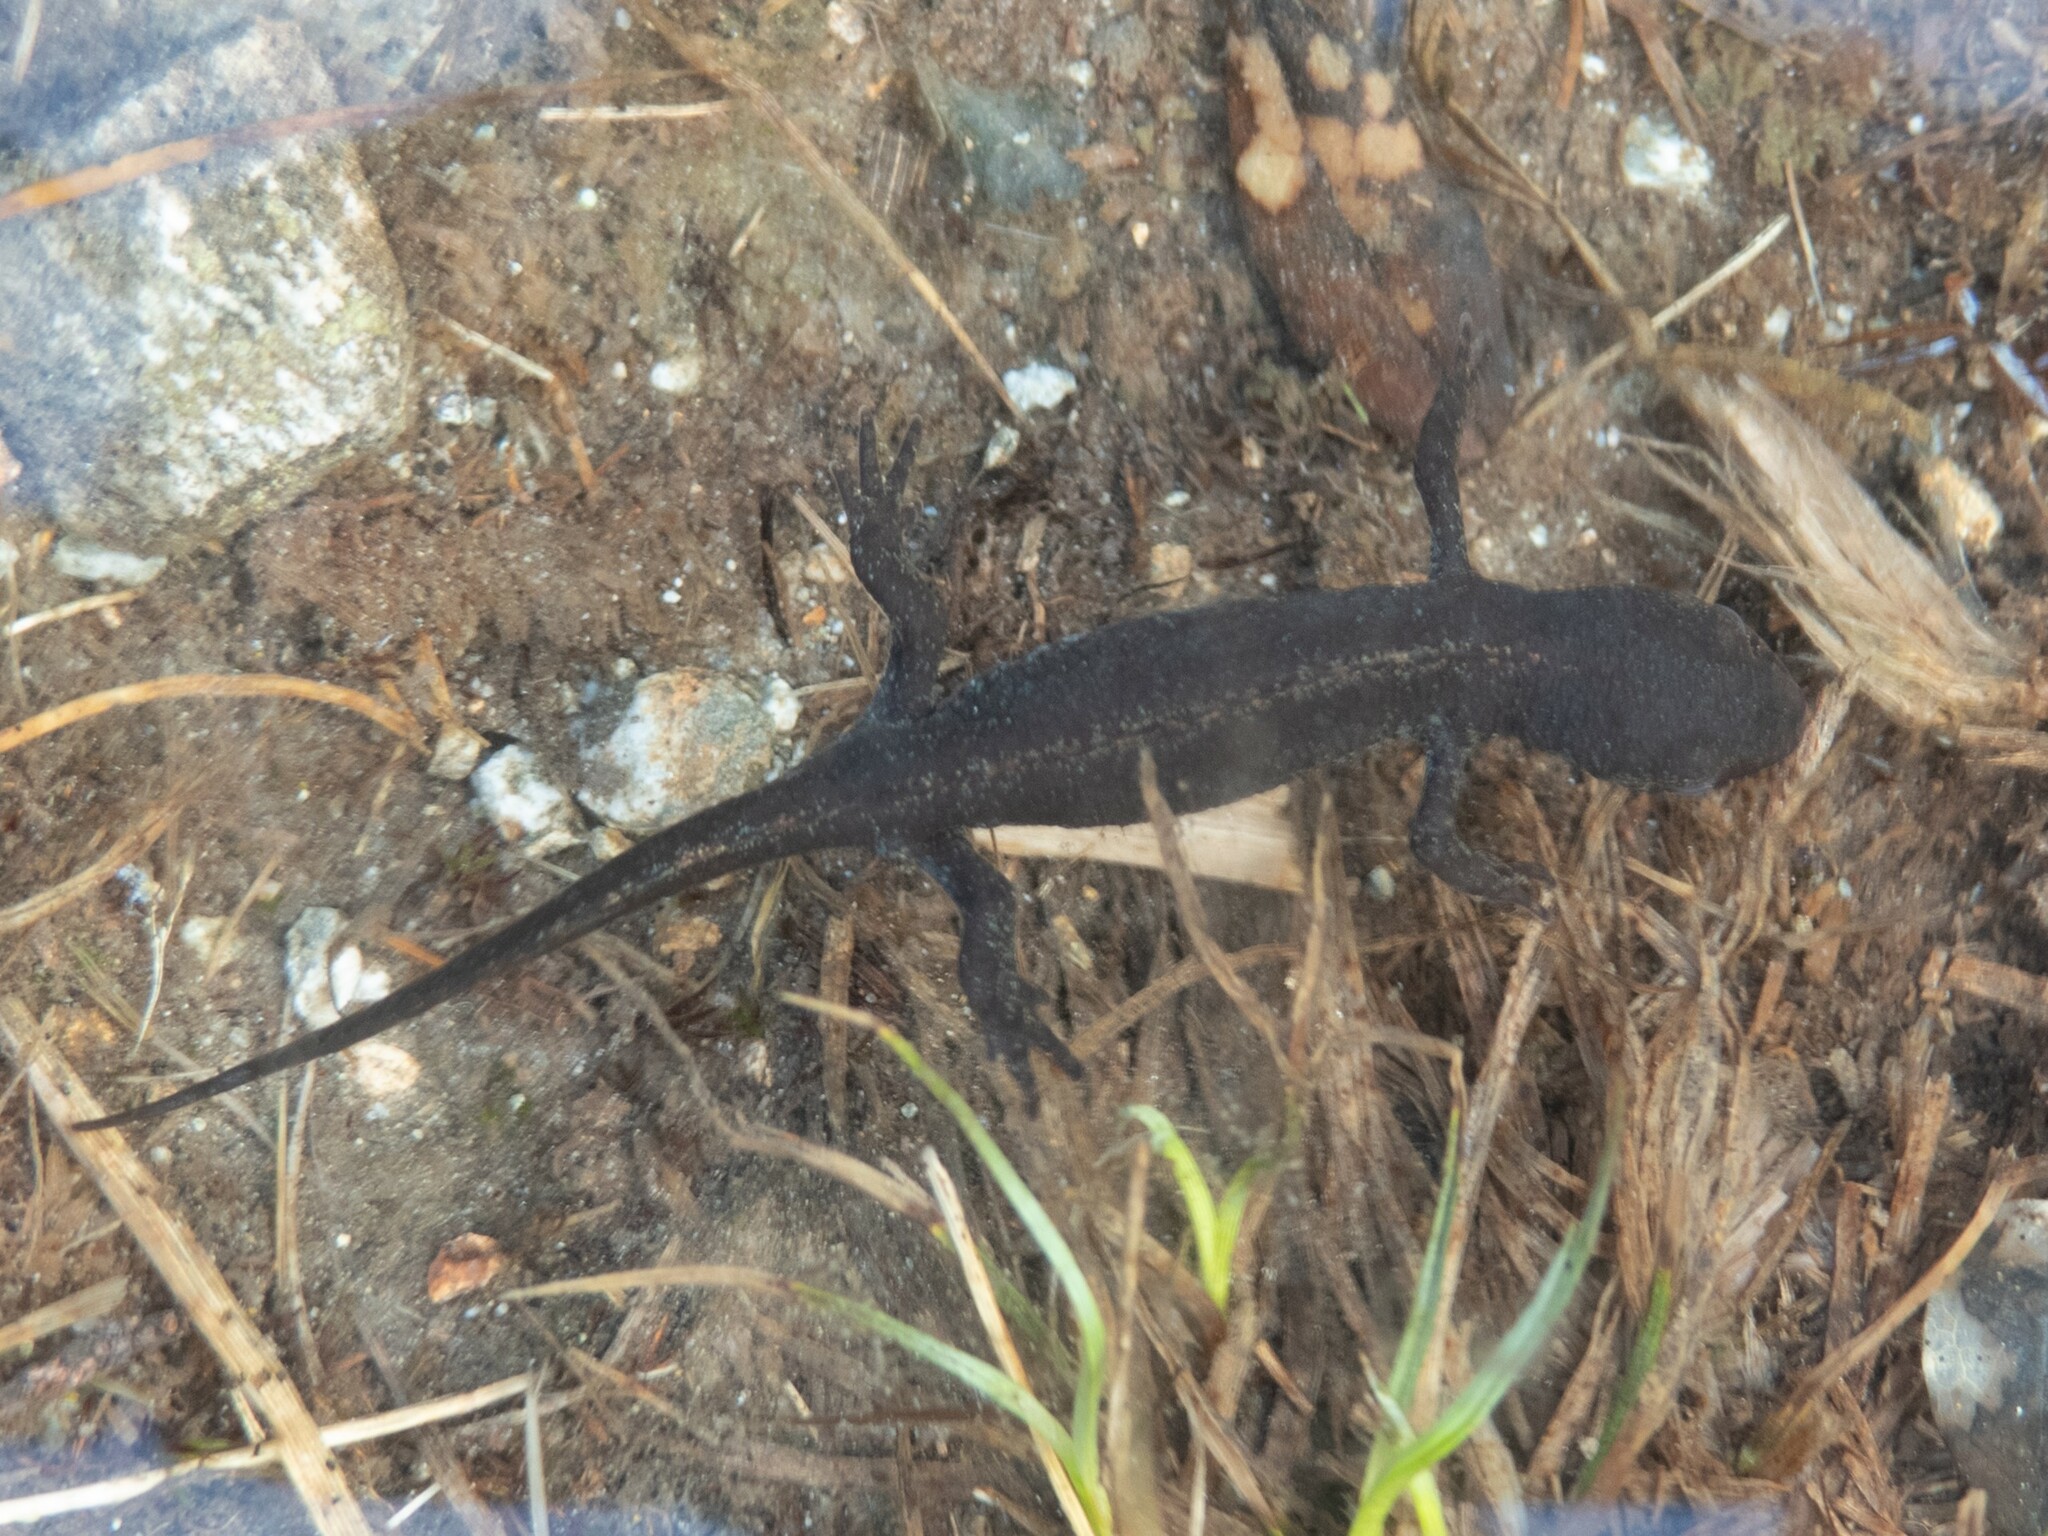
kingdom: Animalia
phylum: Chordata
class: Amphibia
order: Caudata
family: Salamandridae
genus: Ichthyosaura
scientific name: Ichthyosaura alpestris
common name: Alpine newt
